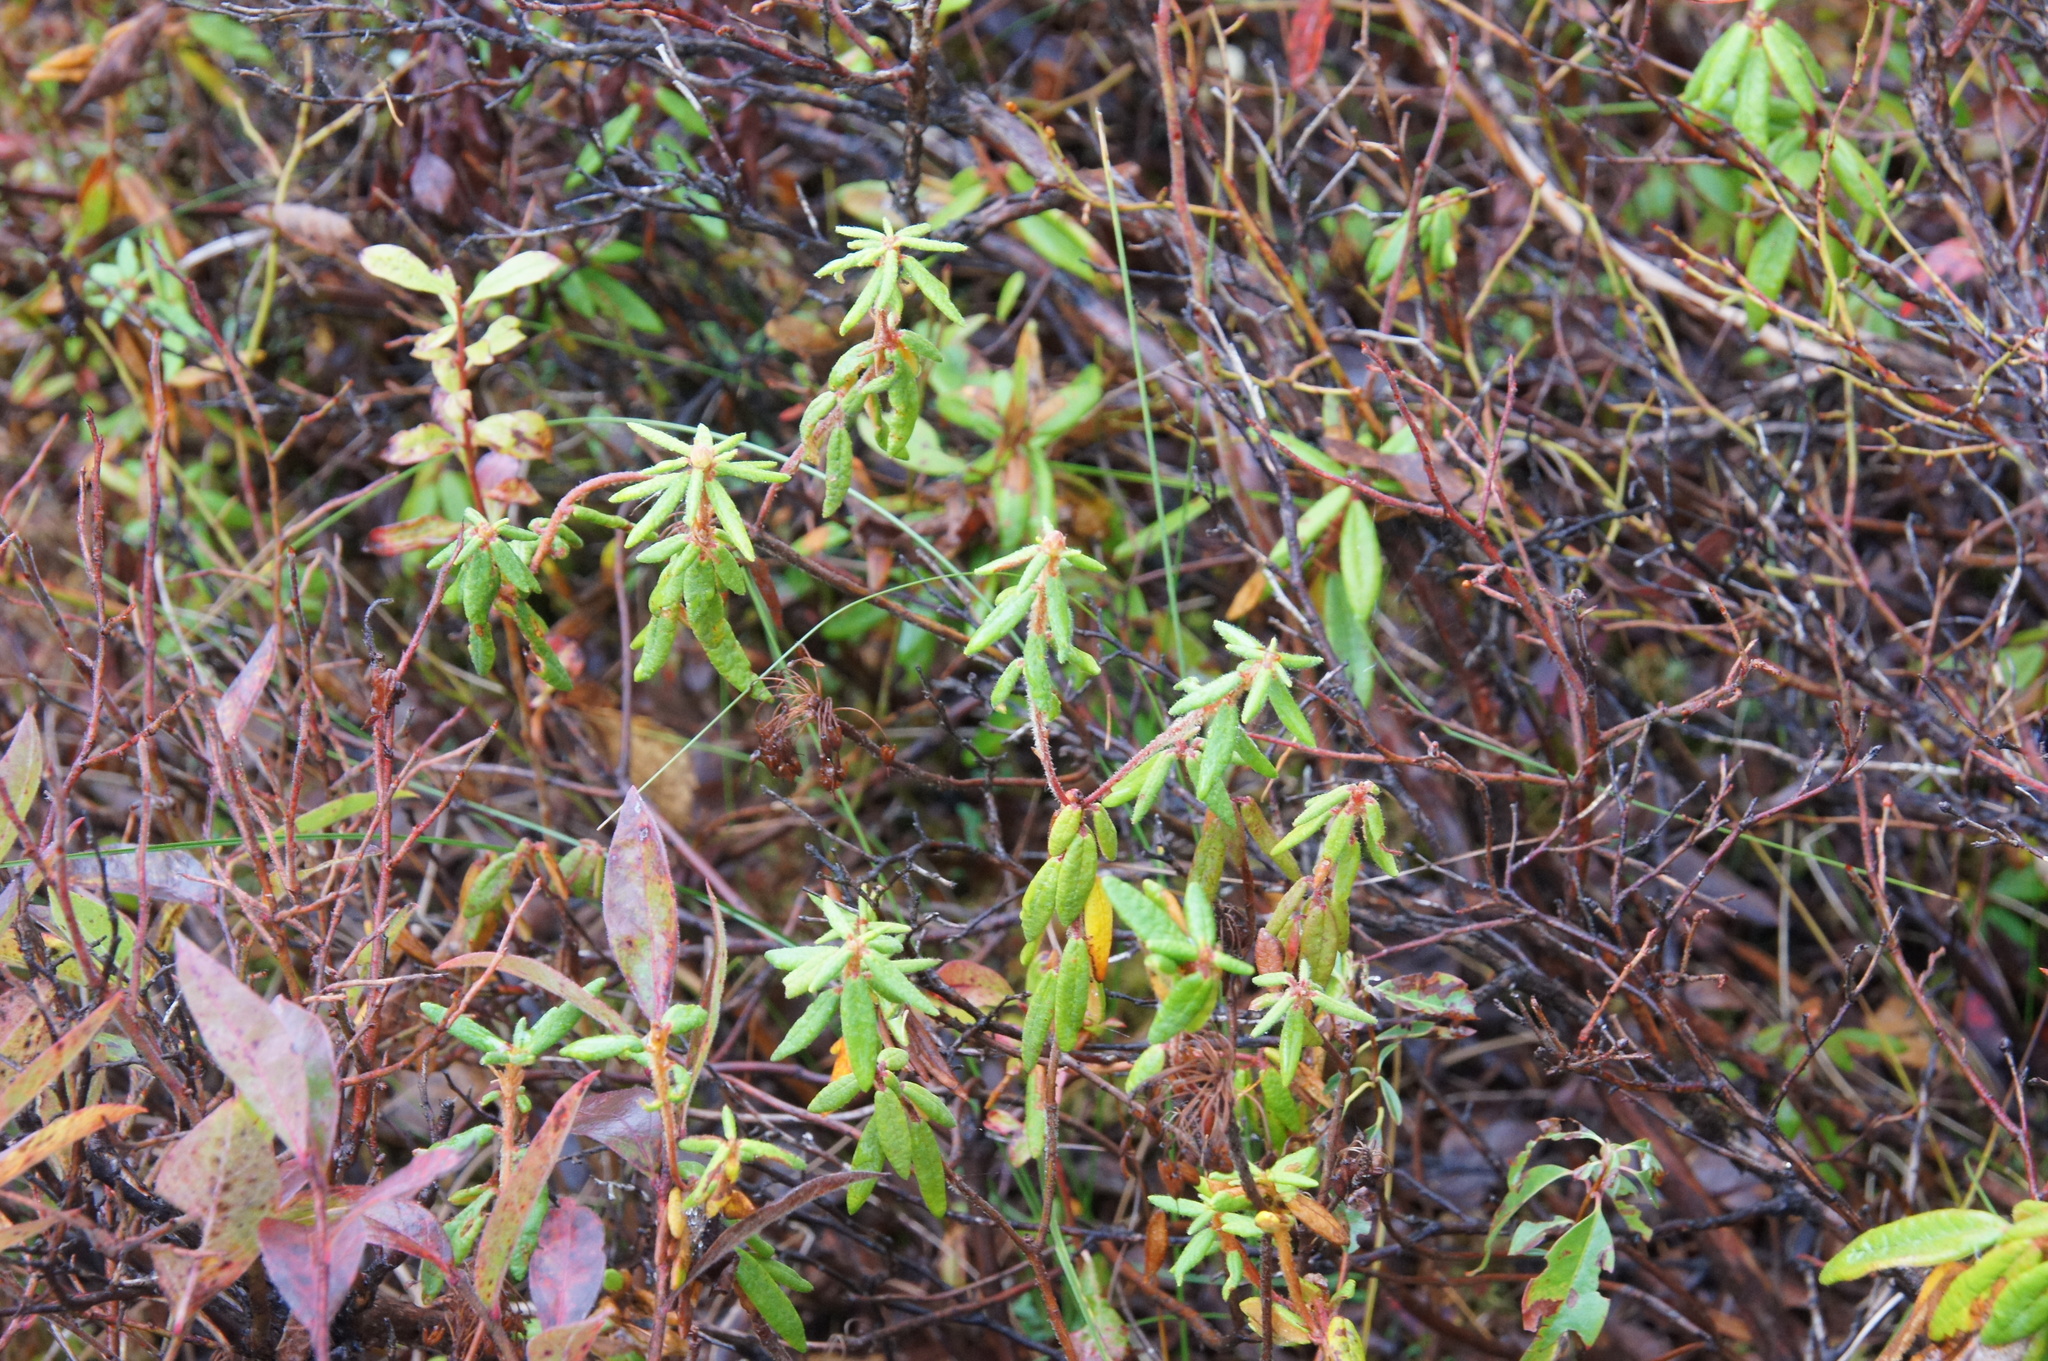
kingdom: Plantae
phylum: Tracheophyta
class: Magnoliopsida
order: Ericales
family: Ericaceae
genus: Rhododendron
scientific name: Rhododendron groenlandicum
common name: Bog labrador tea
